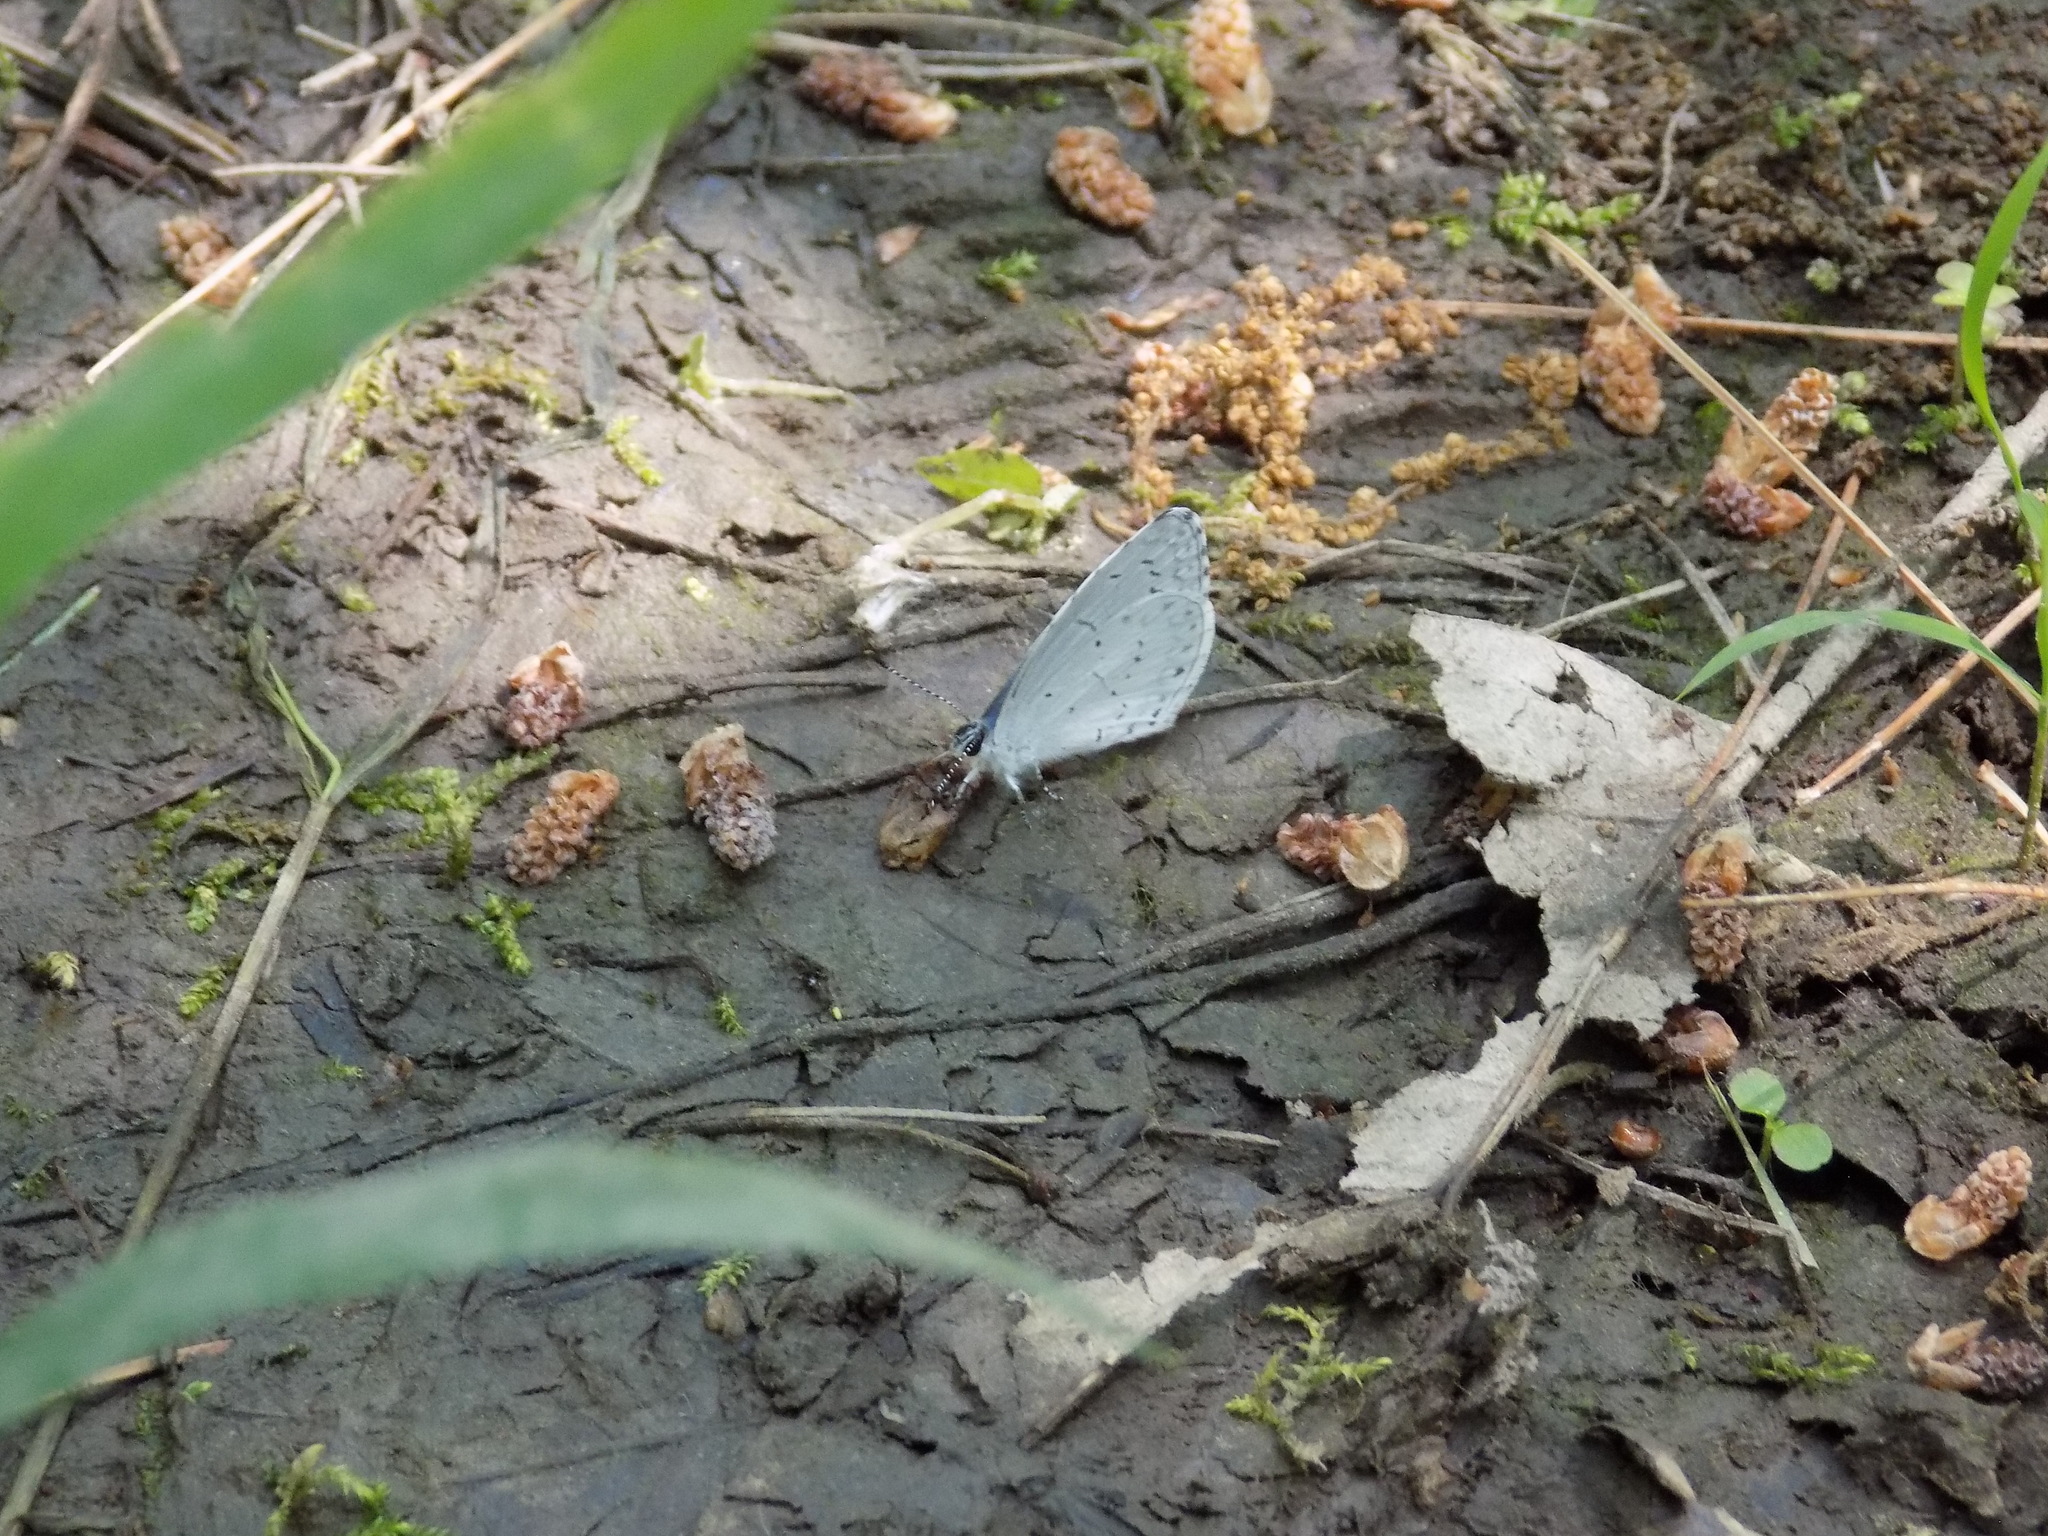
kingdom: Animalia
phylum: Arthropoda
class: Insecta
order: Lepidoptera
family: Lycaenidae
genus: Cyaniris
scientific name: Cyaniris neglecta
